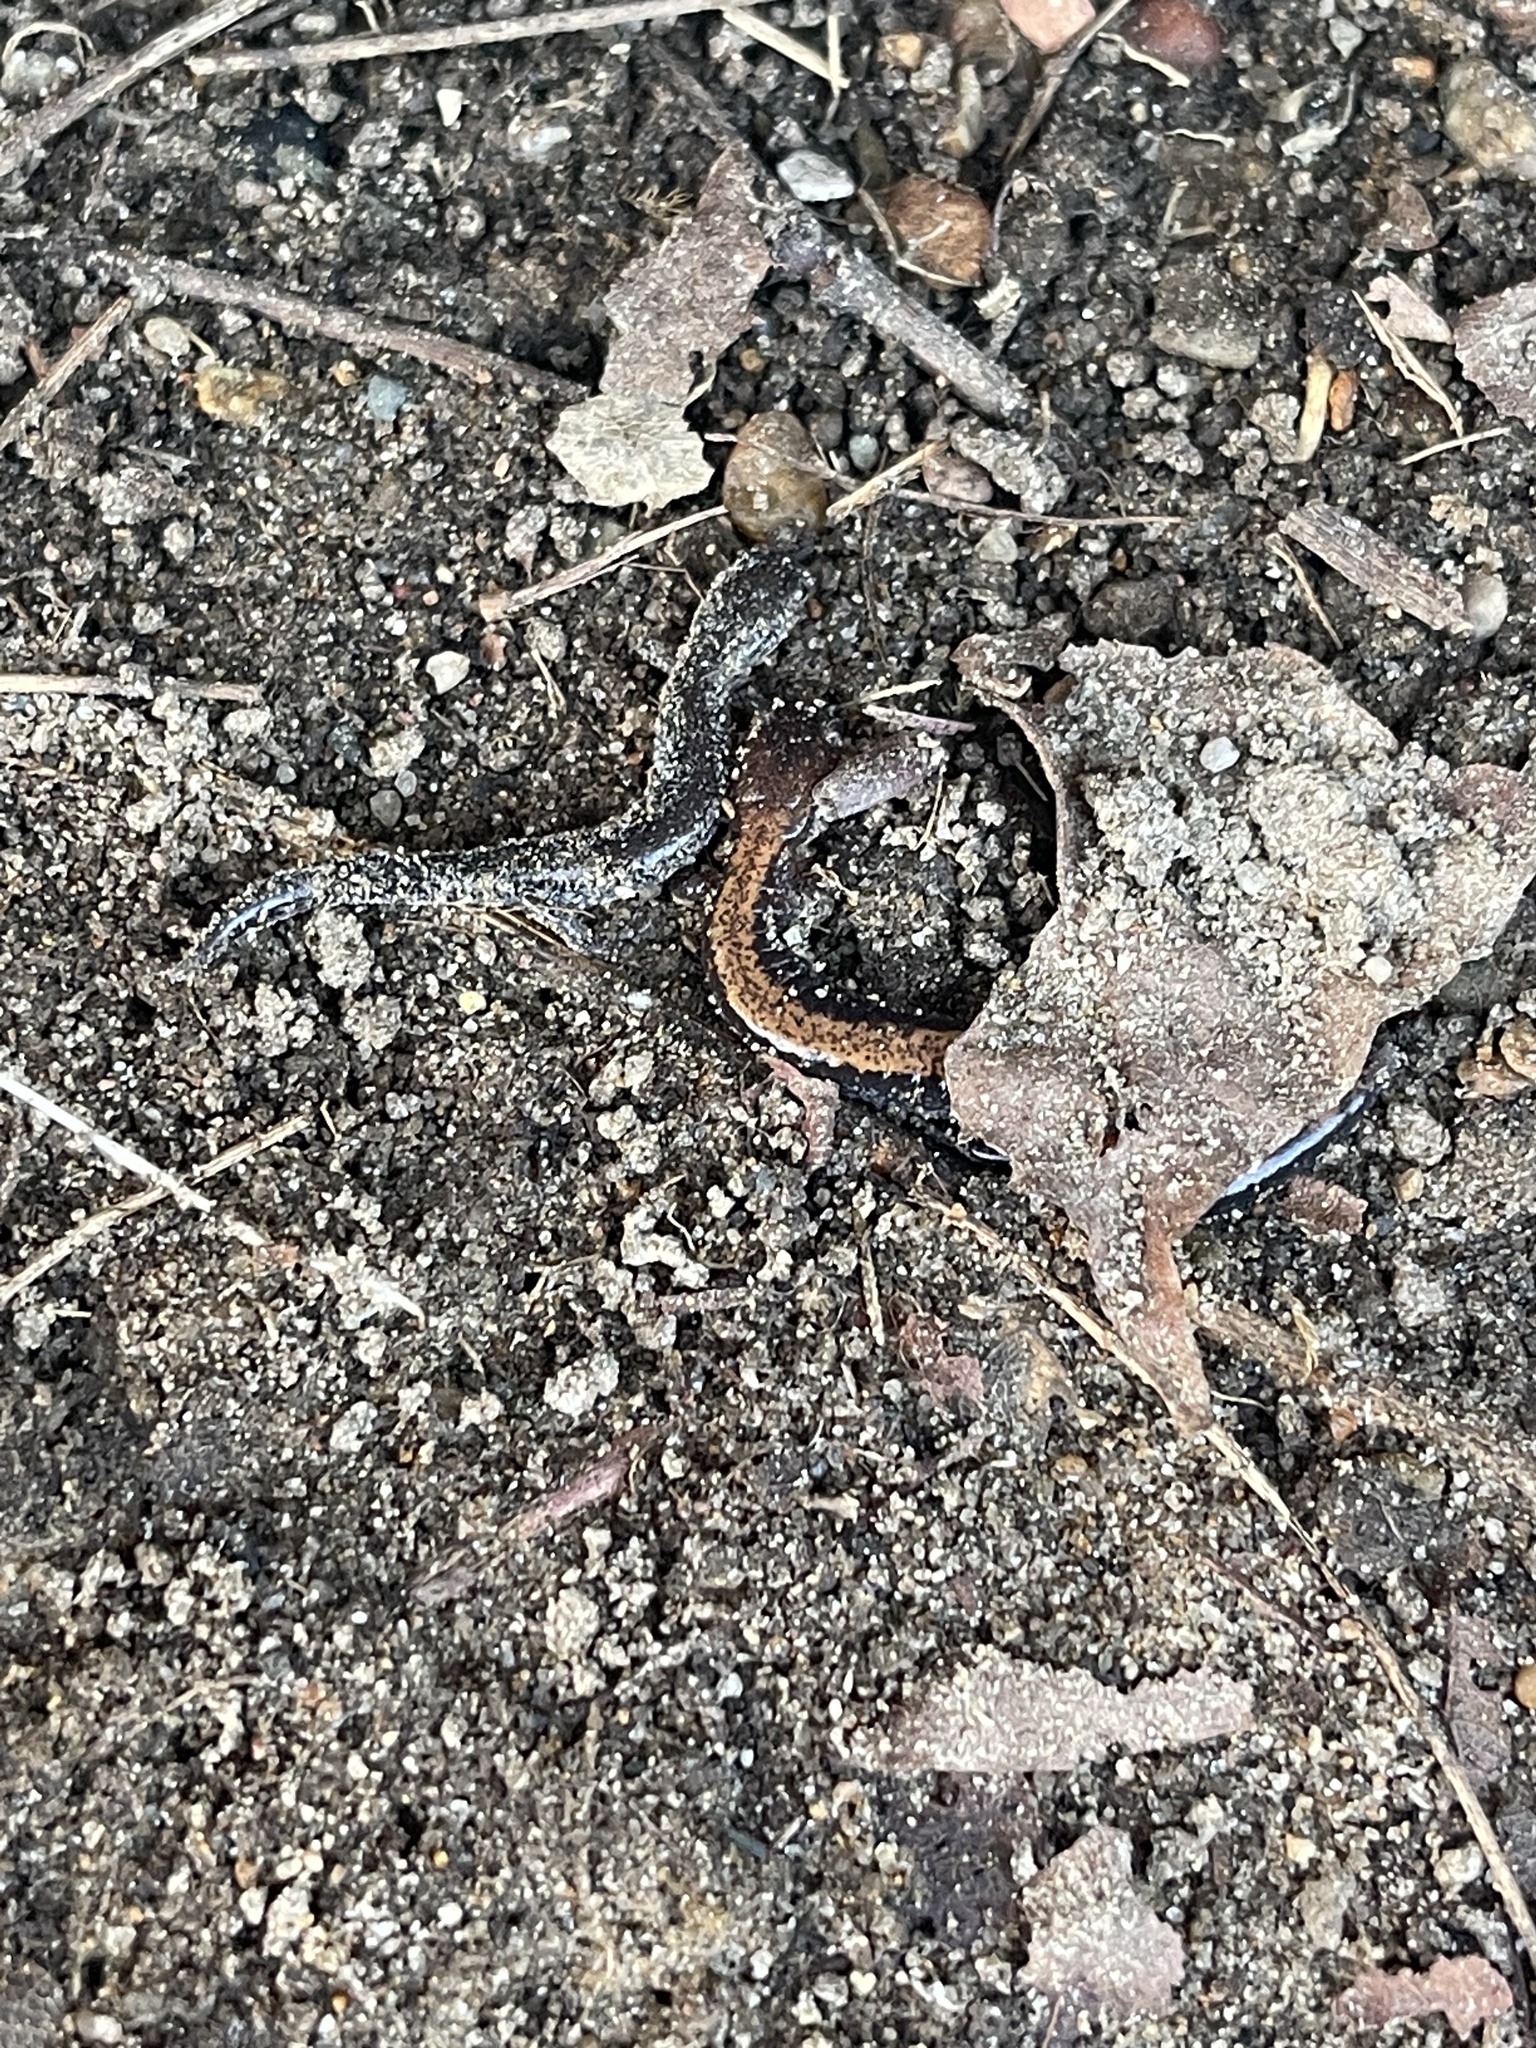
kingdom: Animalia
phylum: Chordata
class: Amphibia
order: Caudata
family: Plethodontidae
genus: Plethodon
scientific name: Plethodon cinereus
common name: Redback salamander
